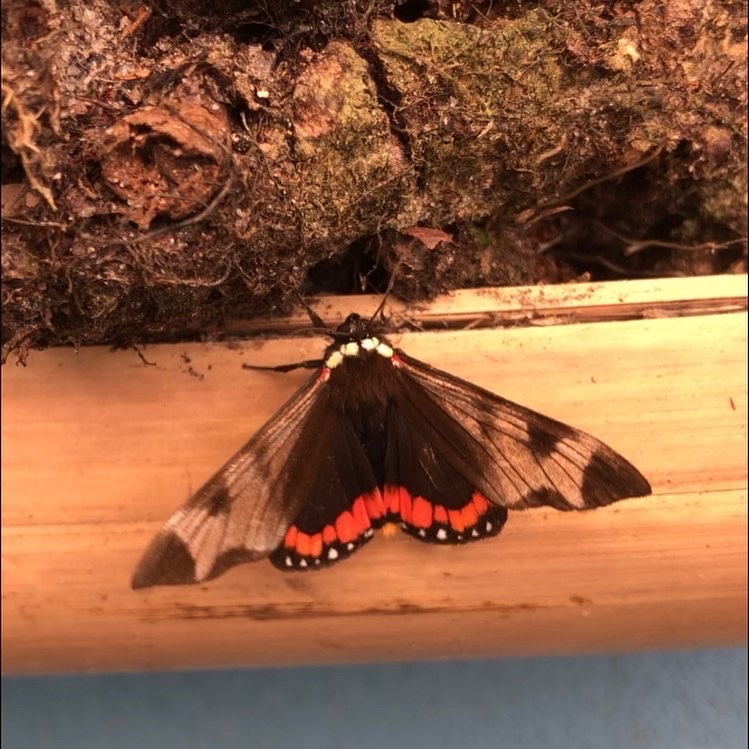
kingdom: Animalia
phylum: Arthropoda
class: Insecta
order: Lepidoptera
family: Erebidae
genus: Dysschema
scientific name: Dysschema leucophaea
